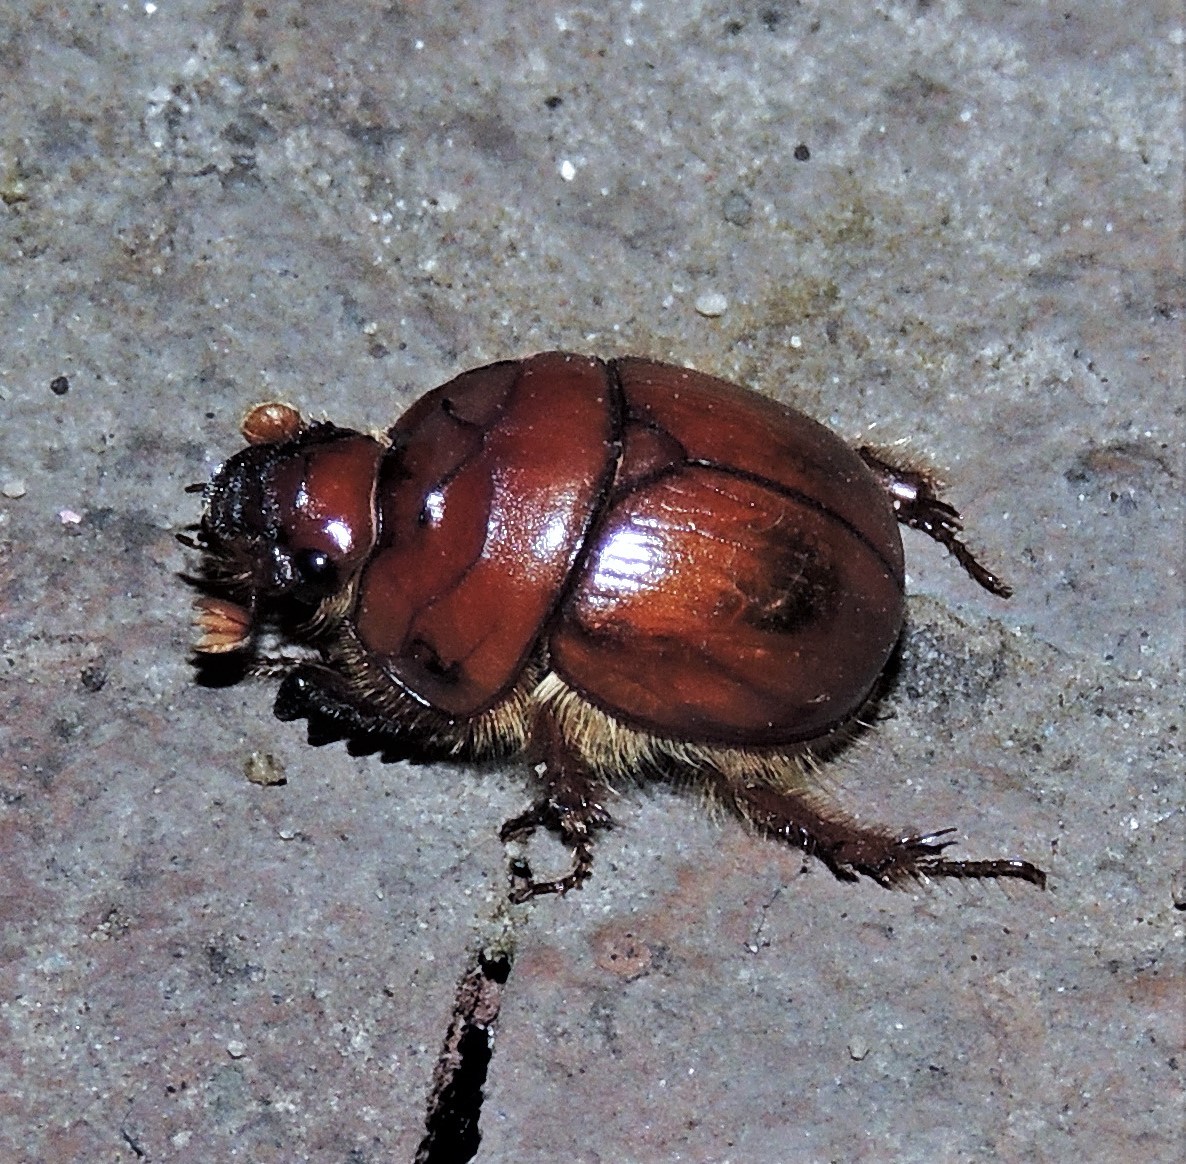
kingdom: Animalia
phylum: Arthropoda
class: Insecta
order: Coleoptera
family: Geotrupidae
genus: Pereirabolbus
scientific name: Pereirabolbus tucumanensis
